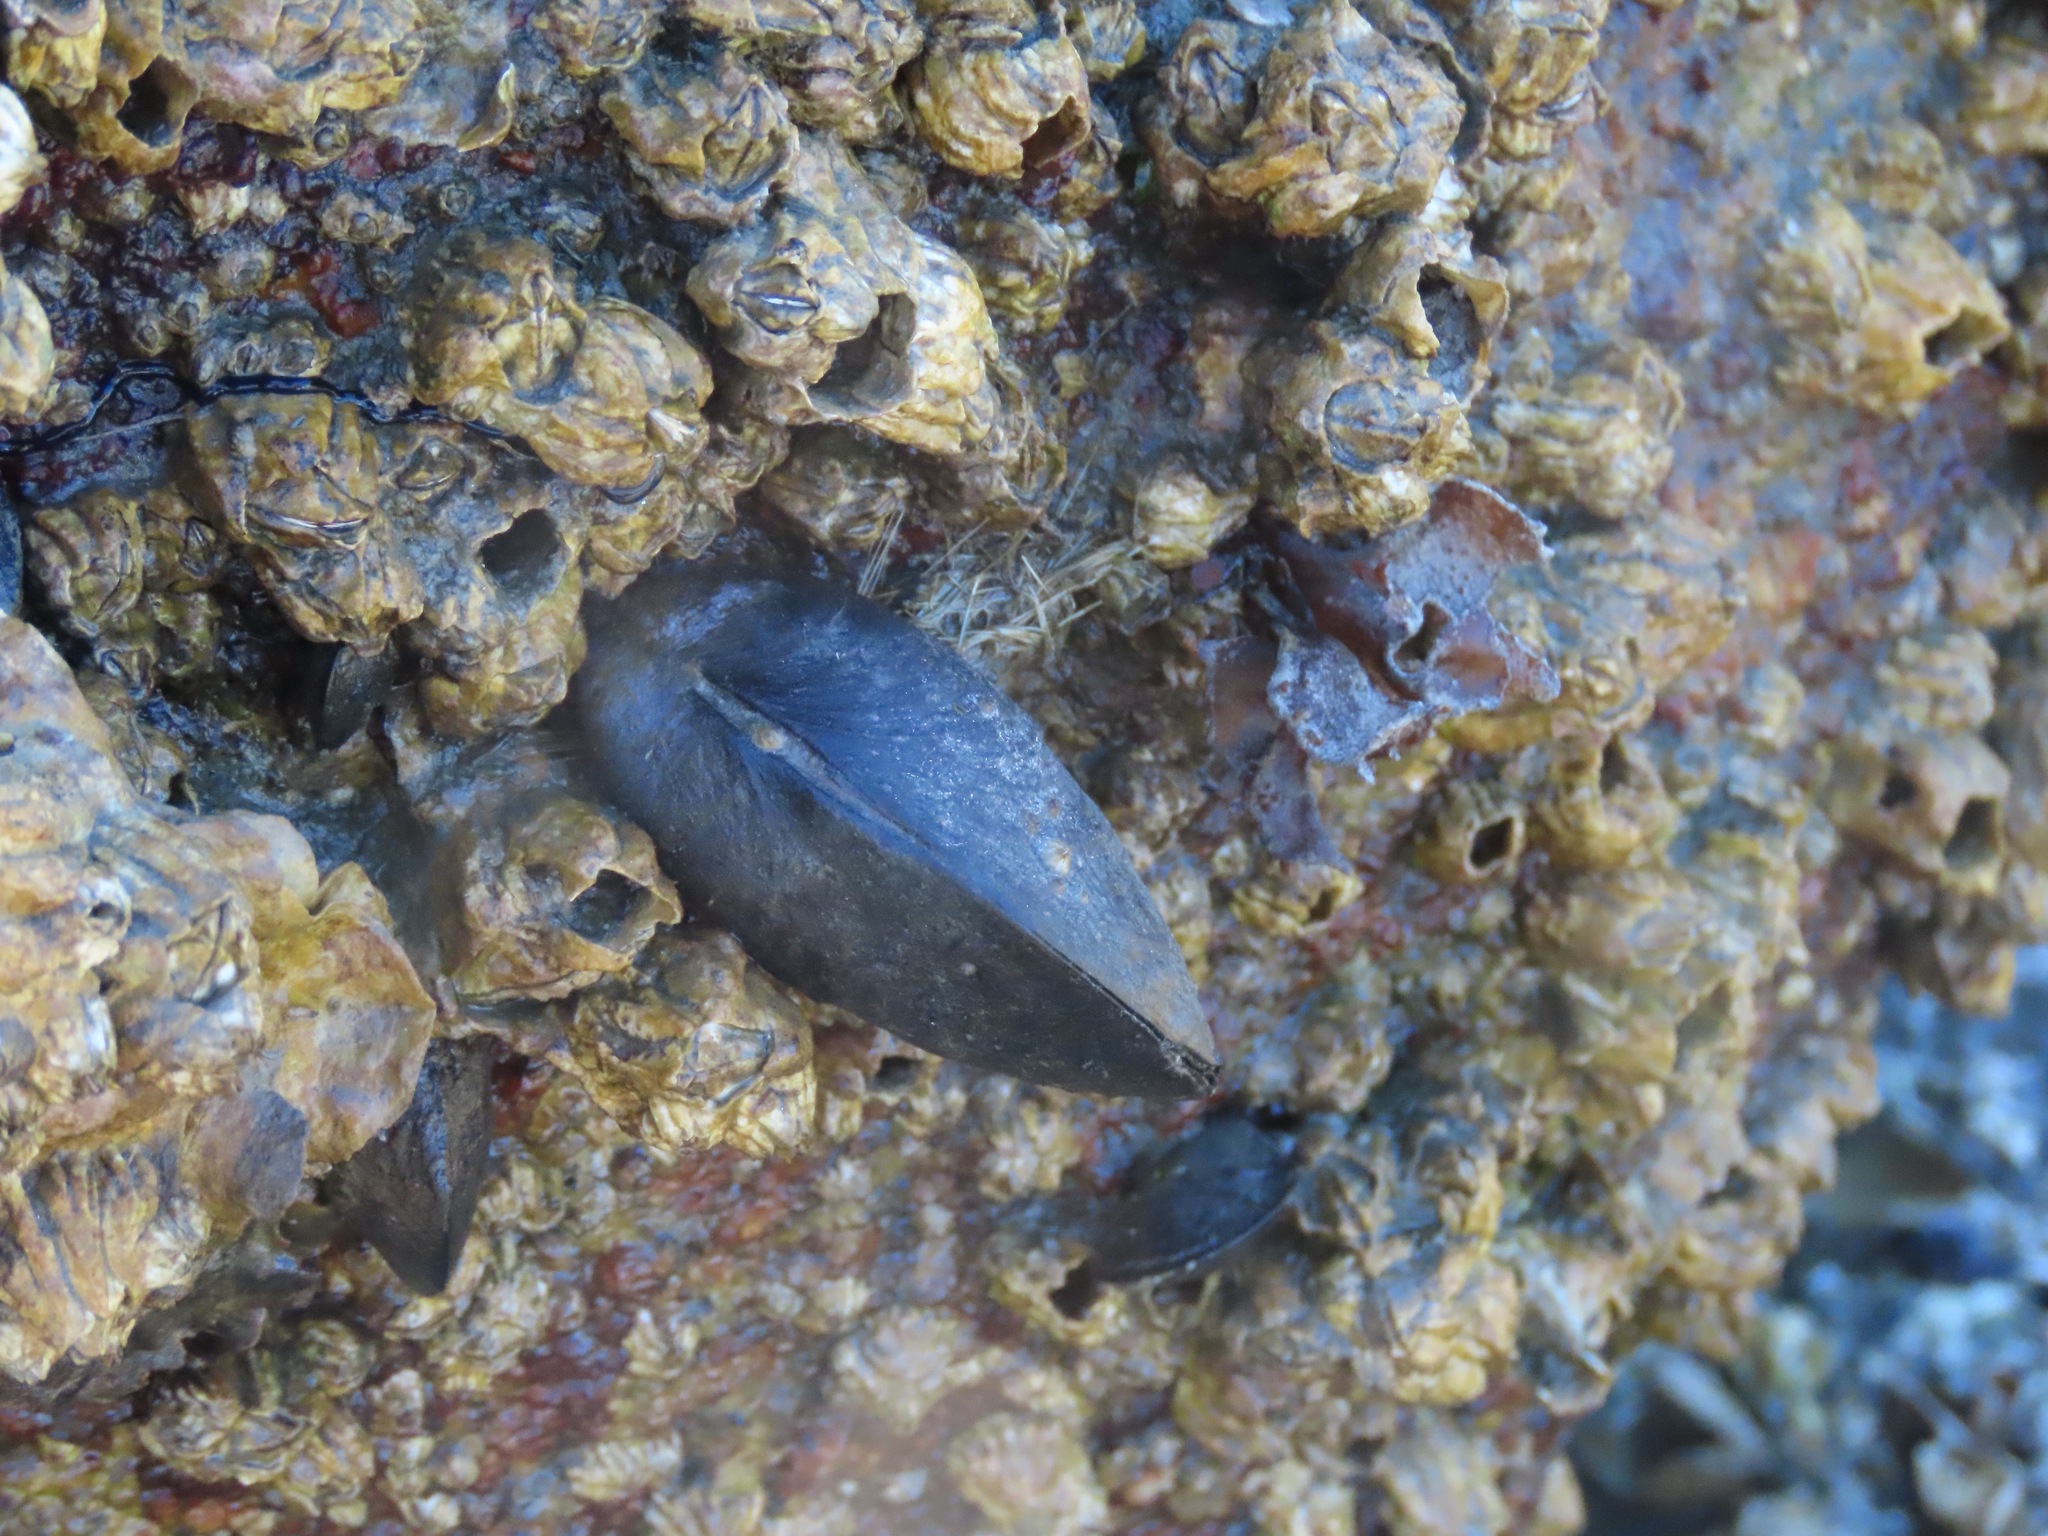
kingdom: Animalia
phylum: Mollusca
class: Bivalvia
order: Mytilida
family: Mytilidae
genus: Mytilus
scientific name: Mytilus
